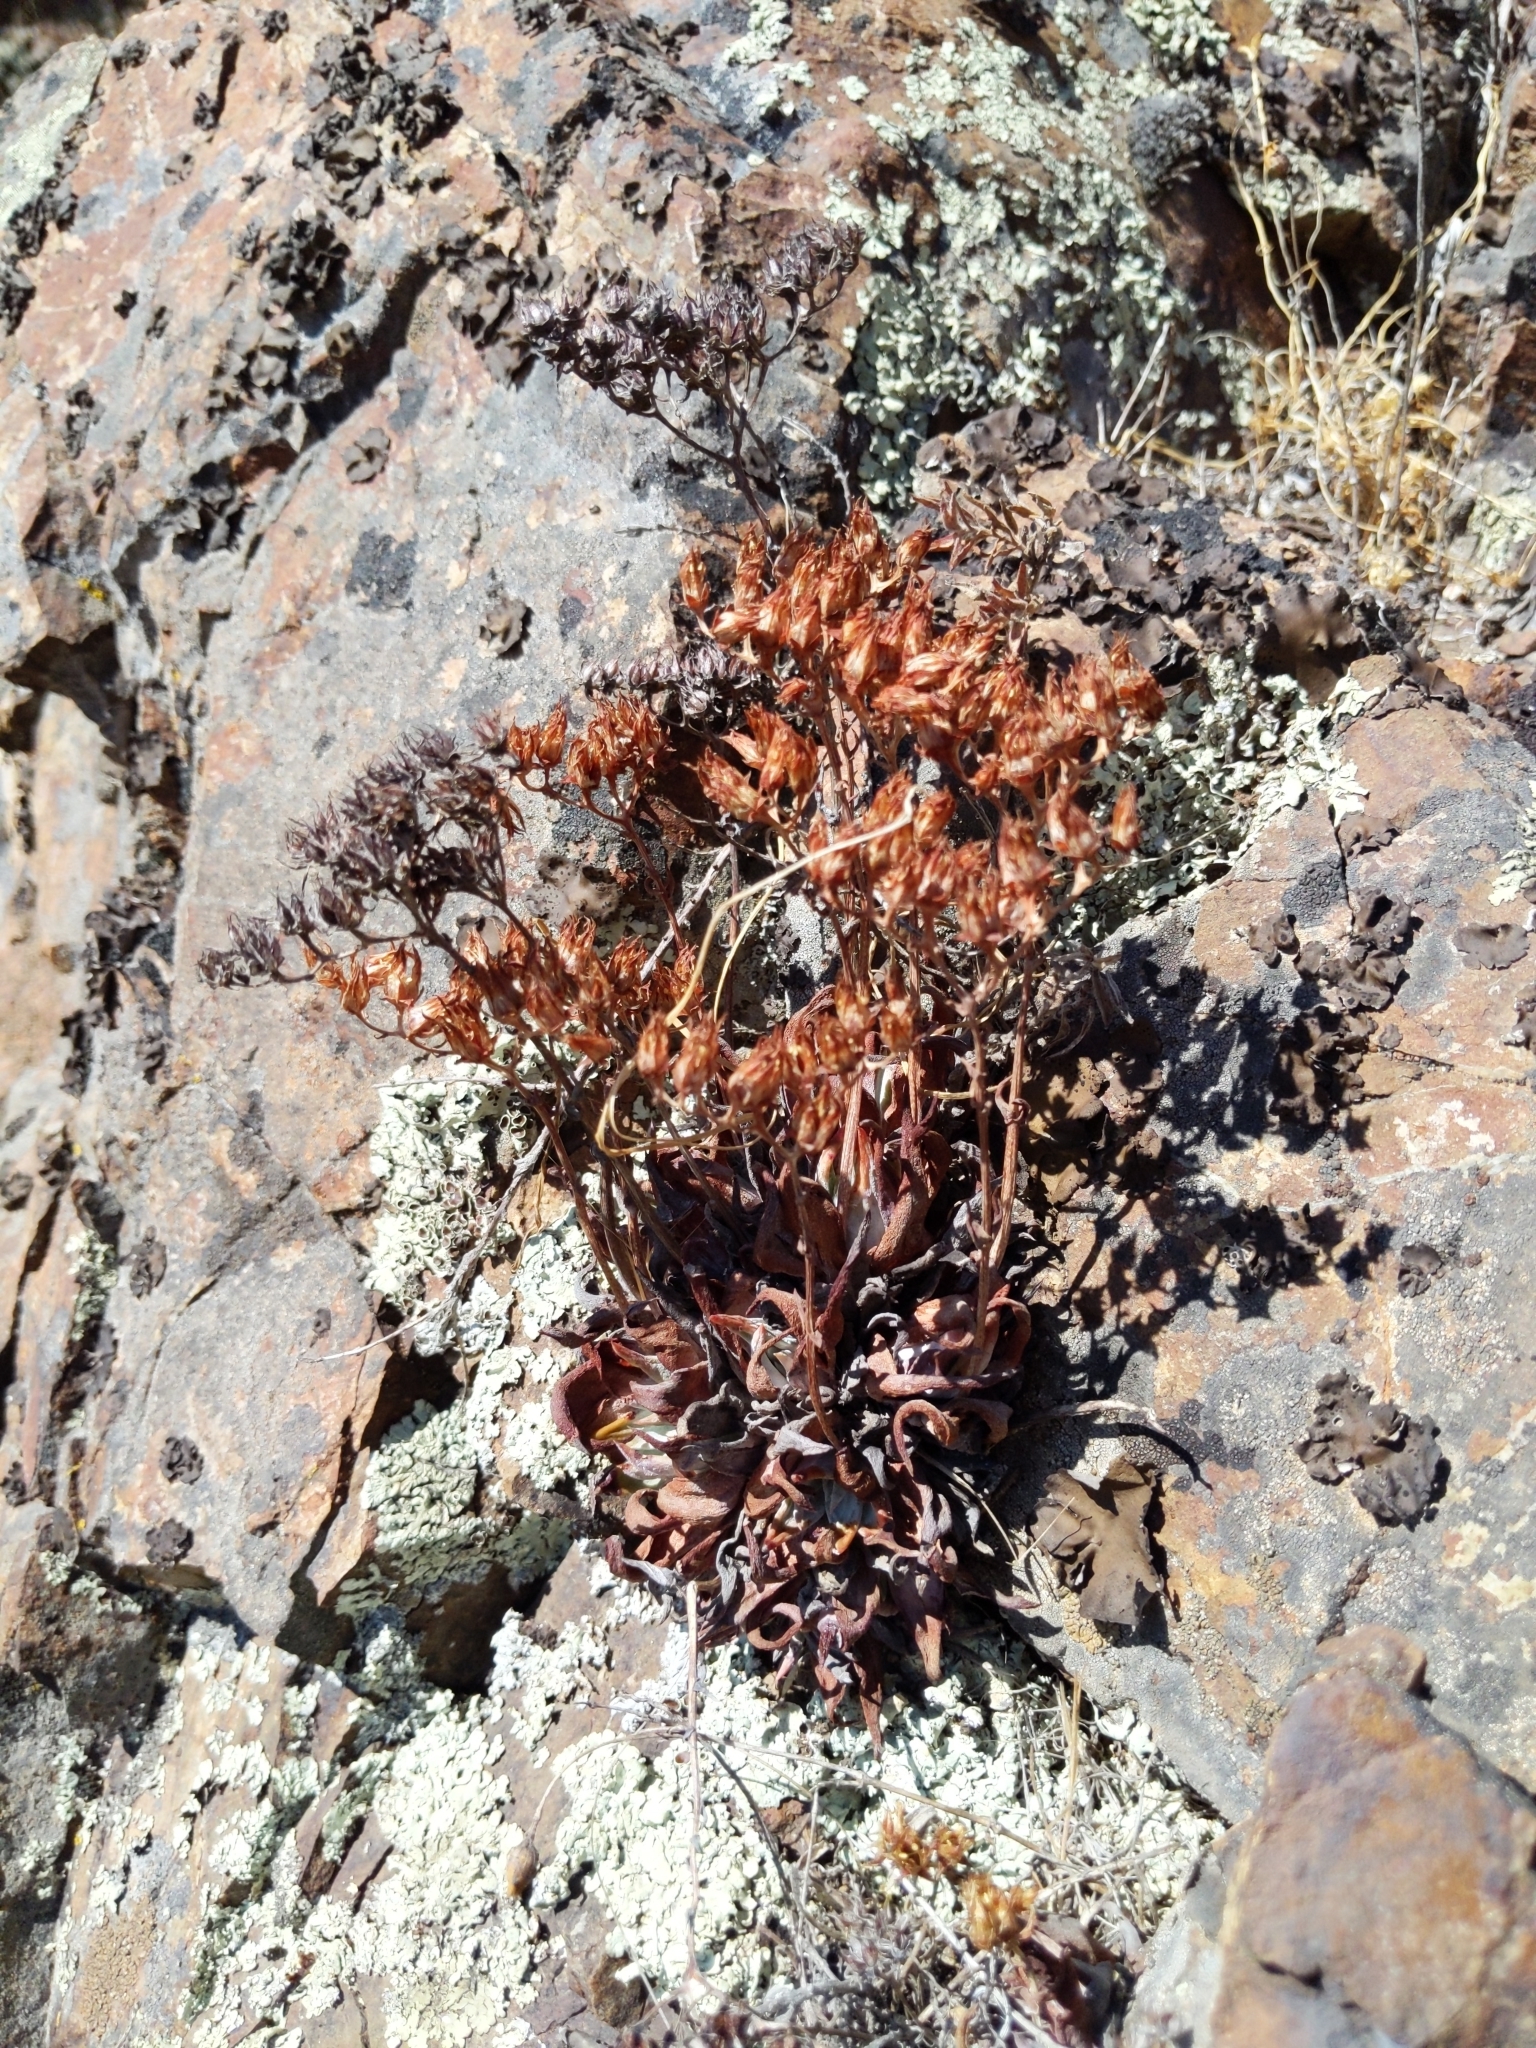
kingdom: Plantae
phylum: Tracheophyta
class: Magnoliopsida
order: Saxifragales
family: Crassulaceae
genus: Dudleya
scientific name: Dudleya cymosa
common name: Canyon dudleya
